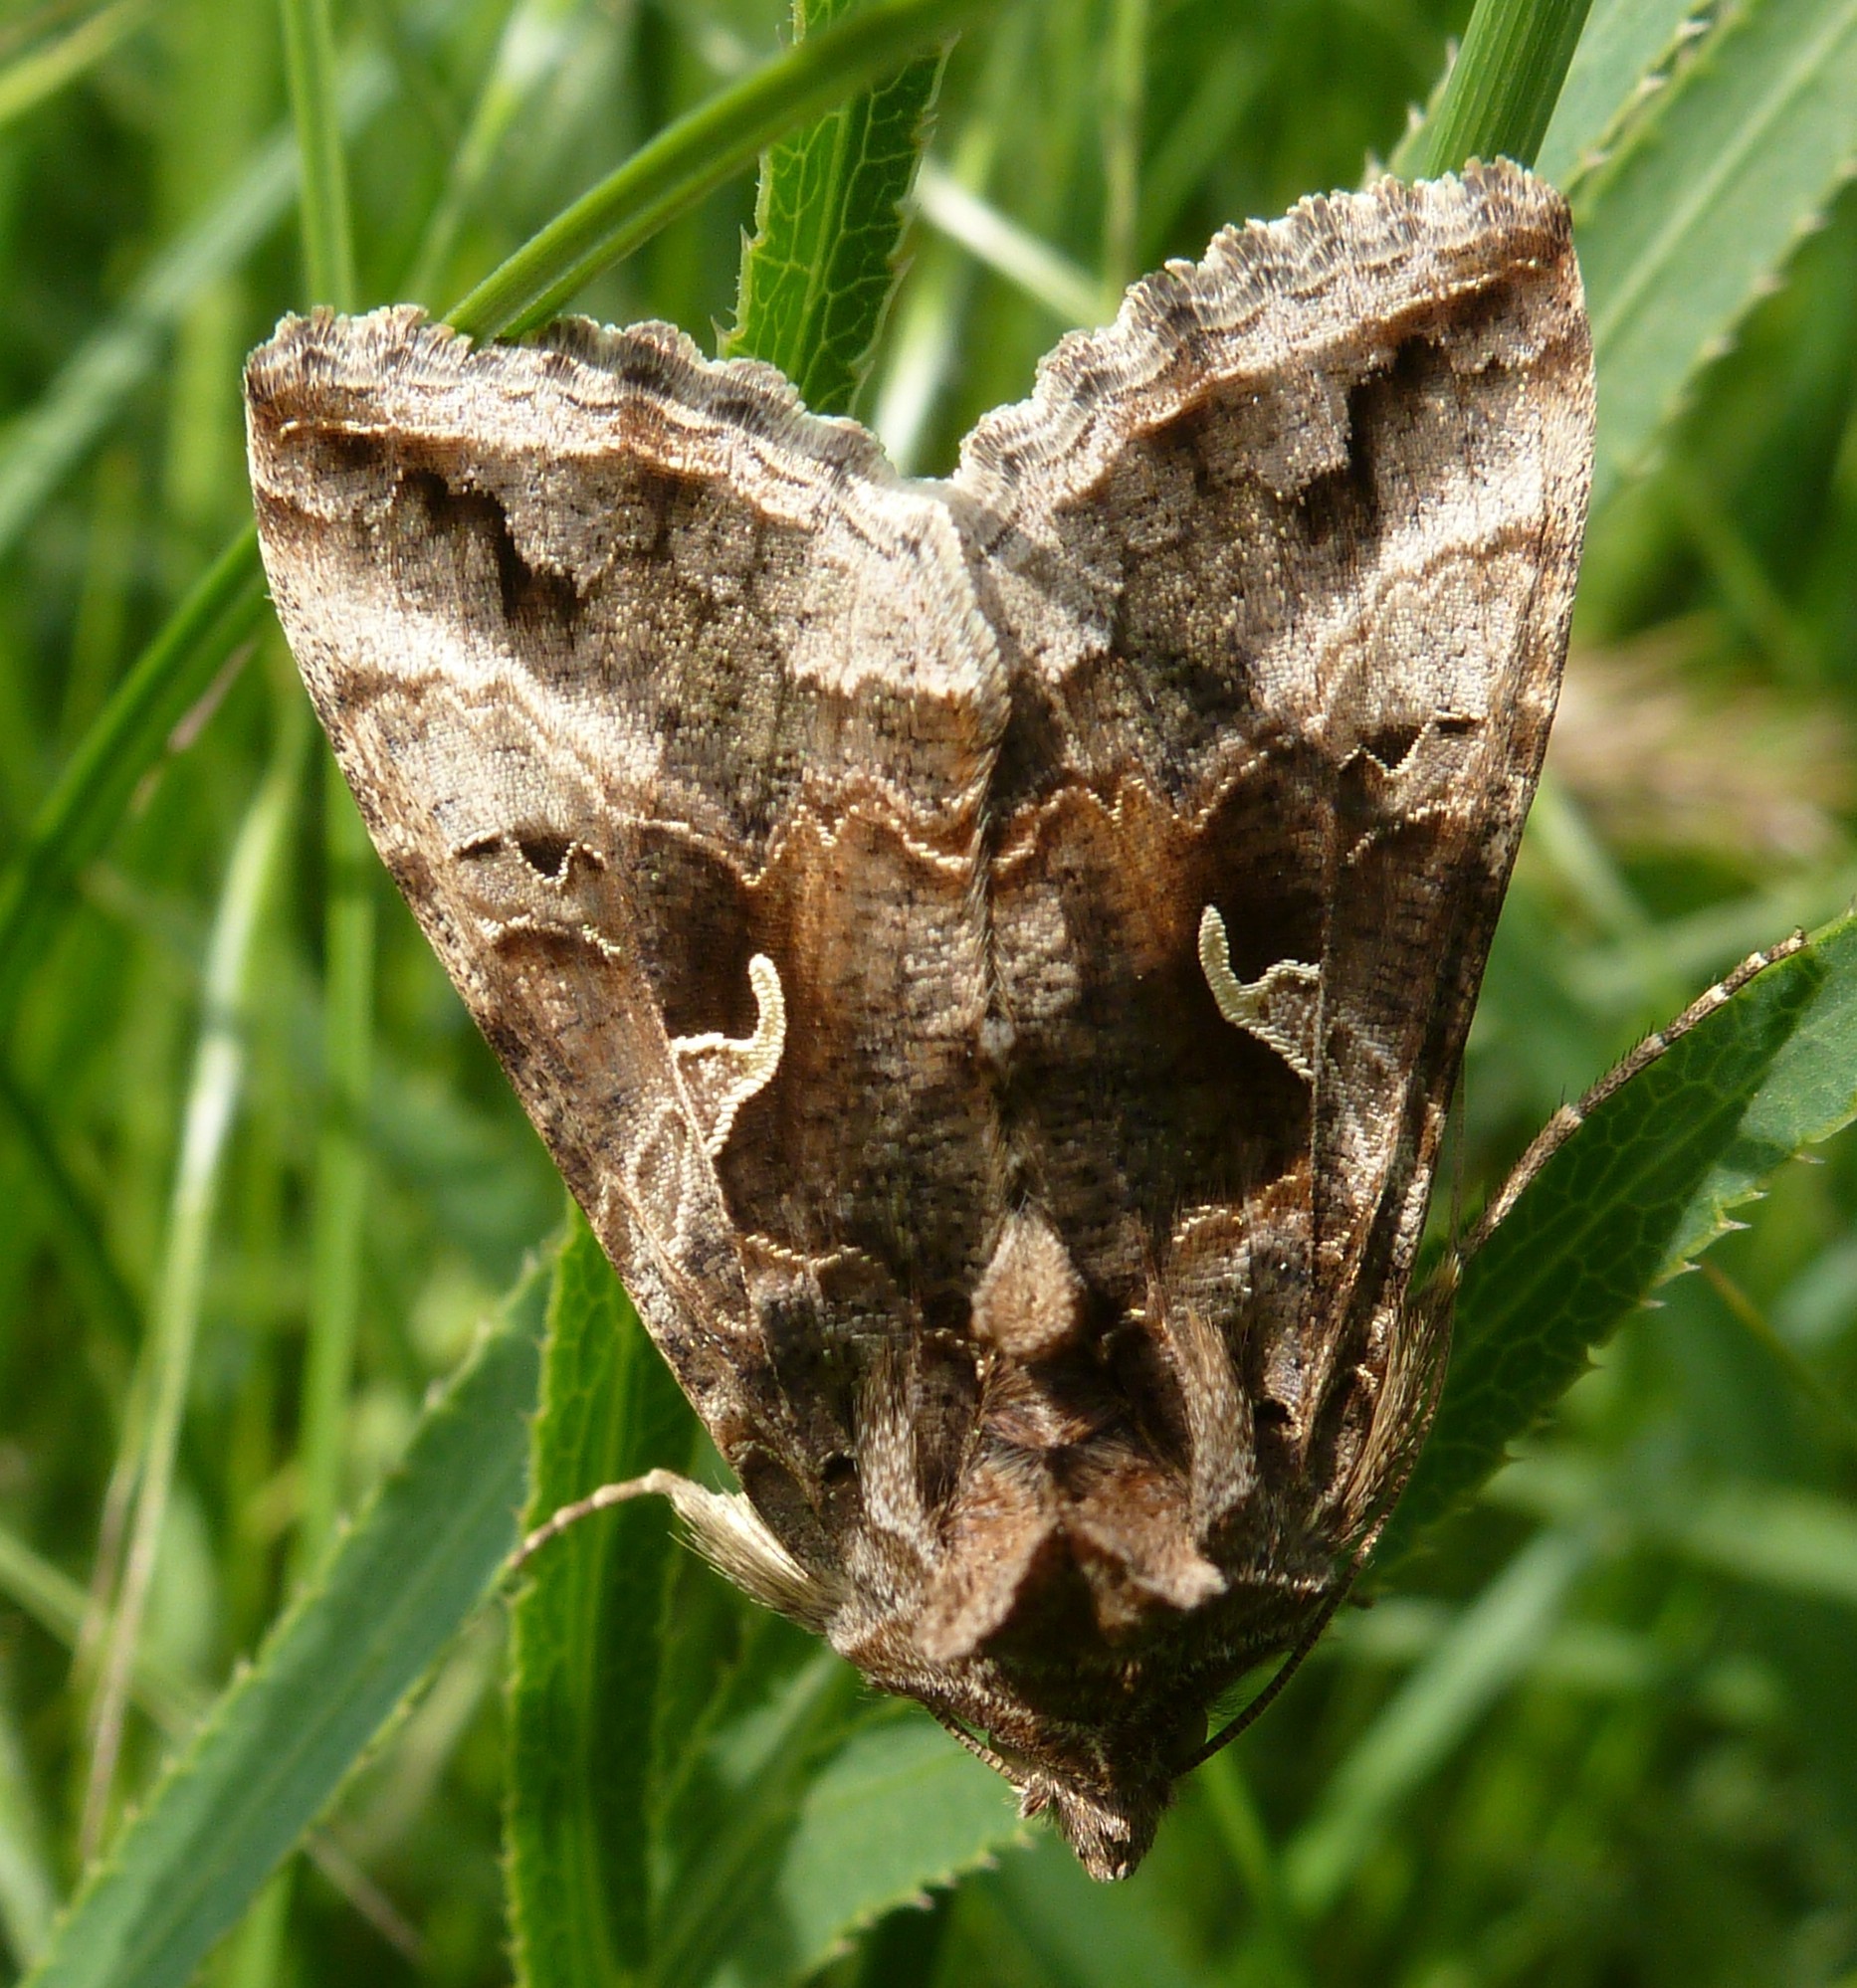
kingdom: Animalia
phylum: Arthropoda
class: Insecta
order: Lepidoptera
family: Noctuidae
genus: Autographa
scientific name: Autographa gamma
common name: Silver y
